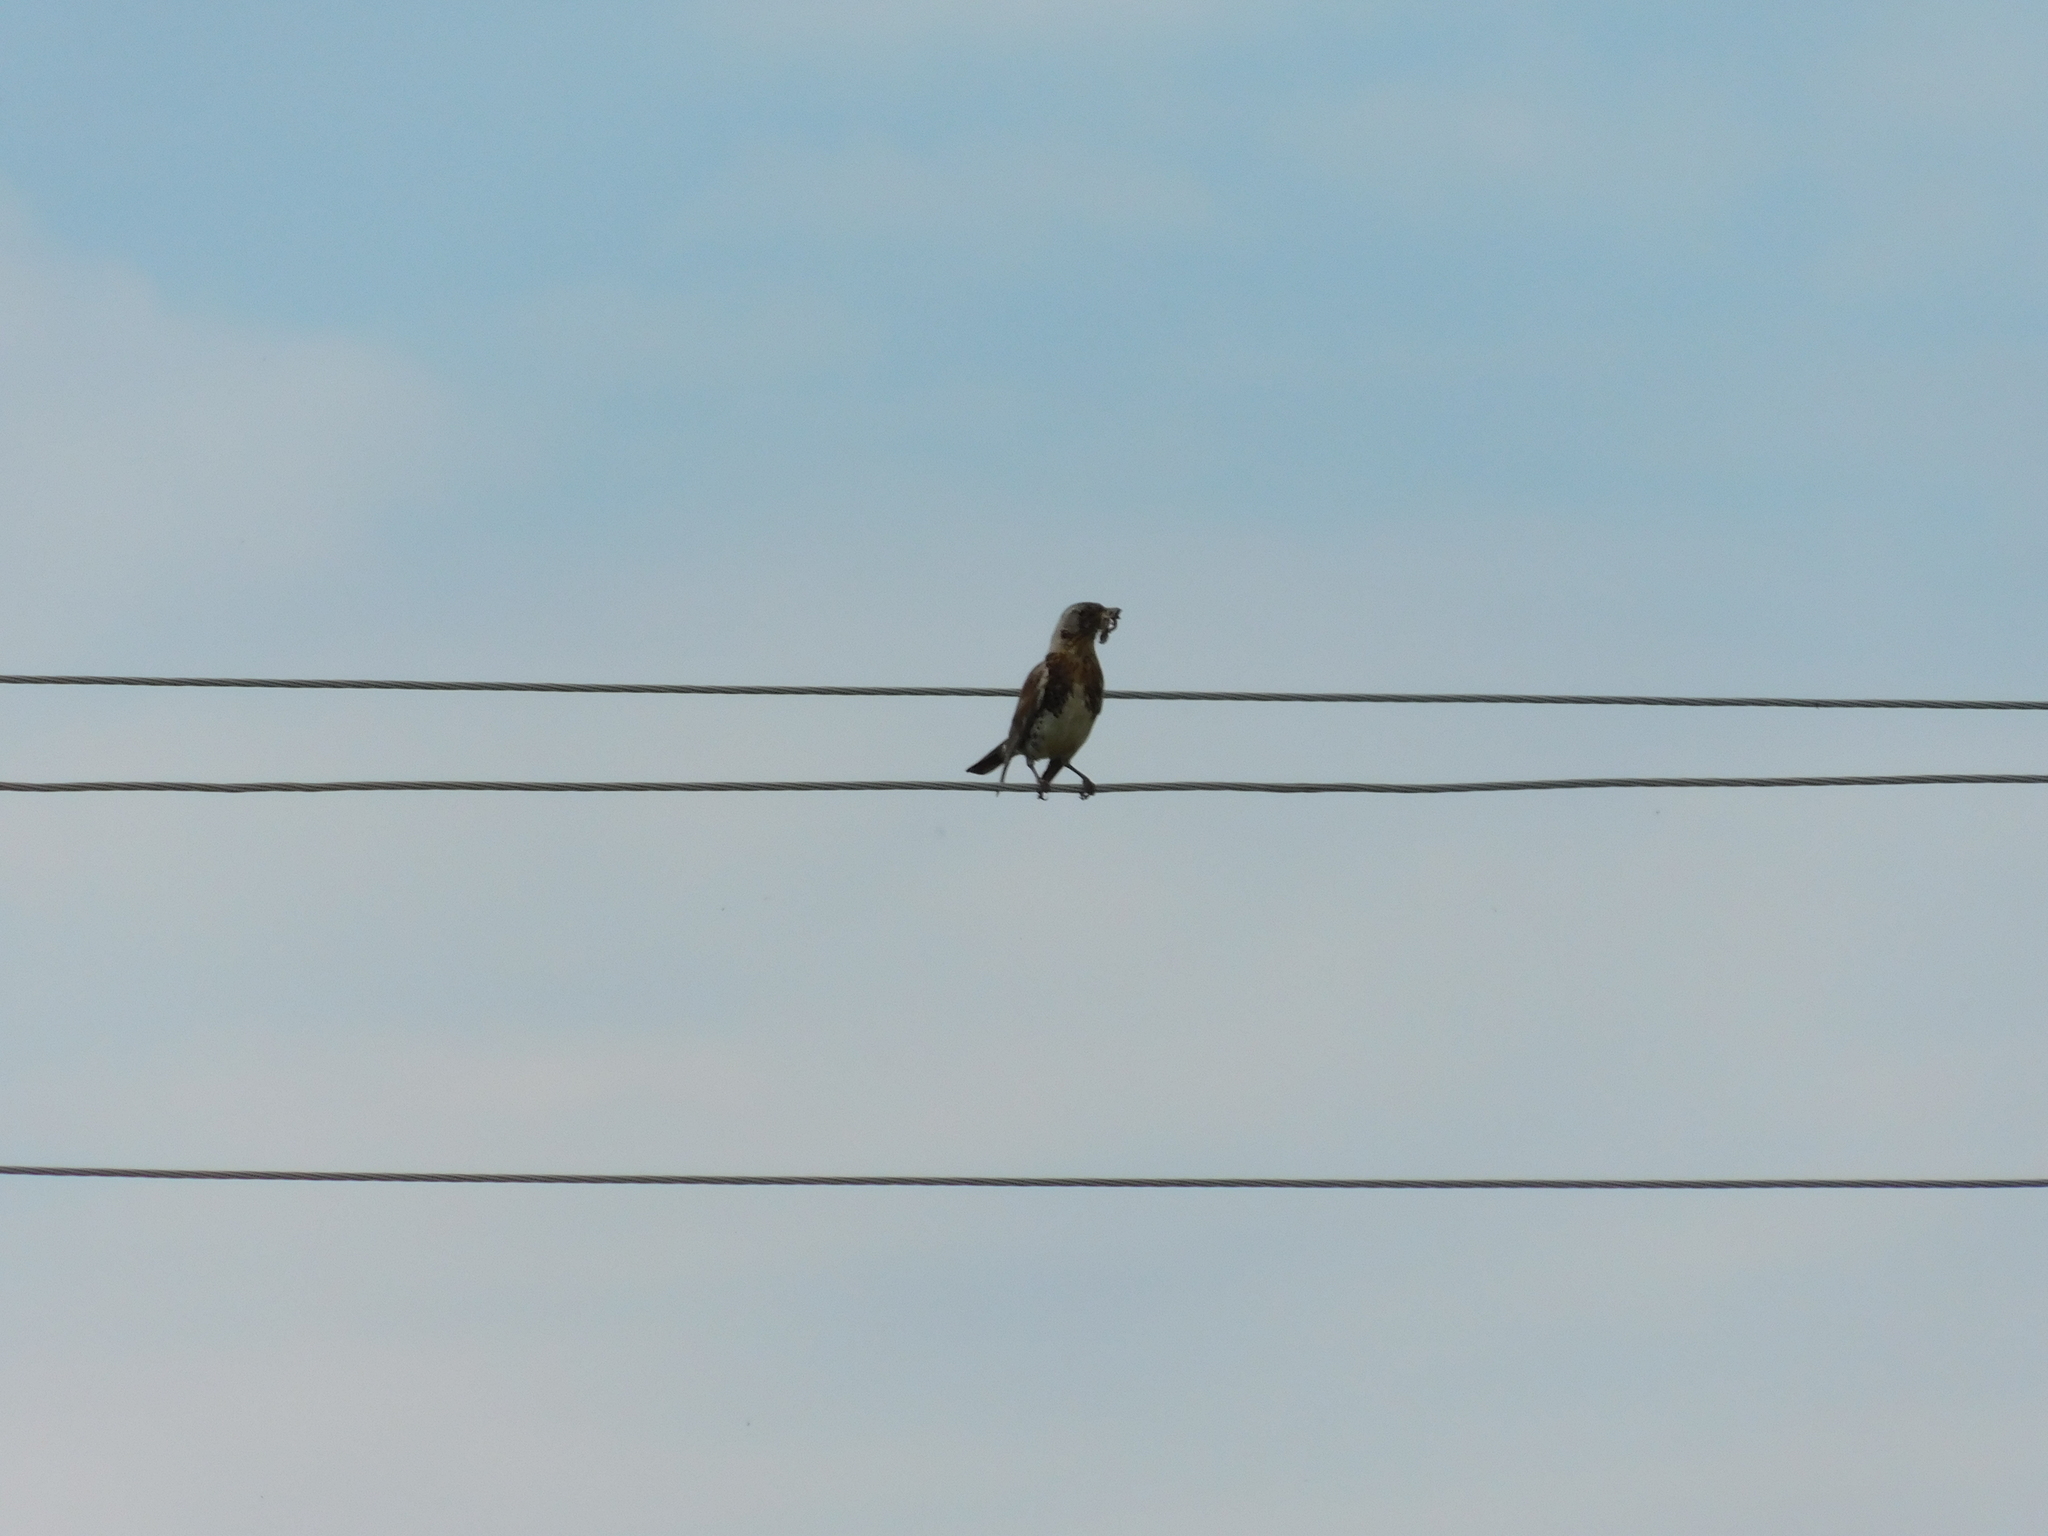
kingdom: Animalia
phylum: Chordata
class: Aves
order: Passeriformes
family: Turdidae
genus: Turdus
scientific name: Turdus pilaris
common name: Fieldfare
